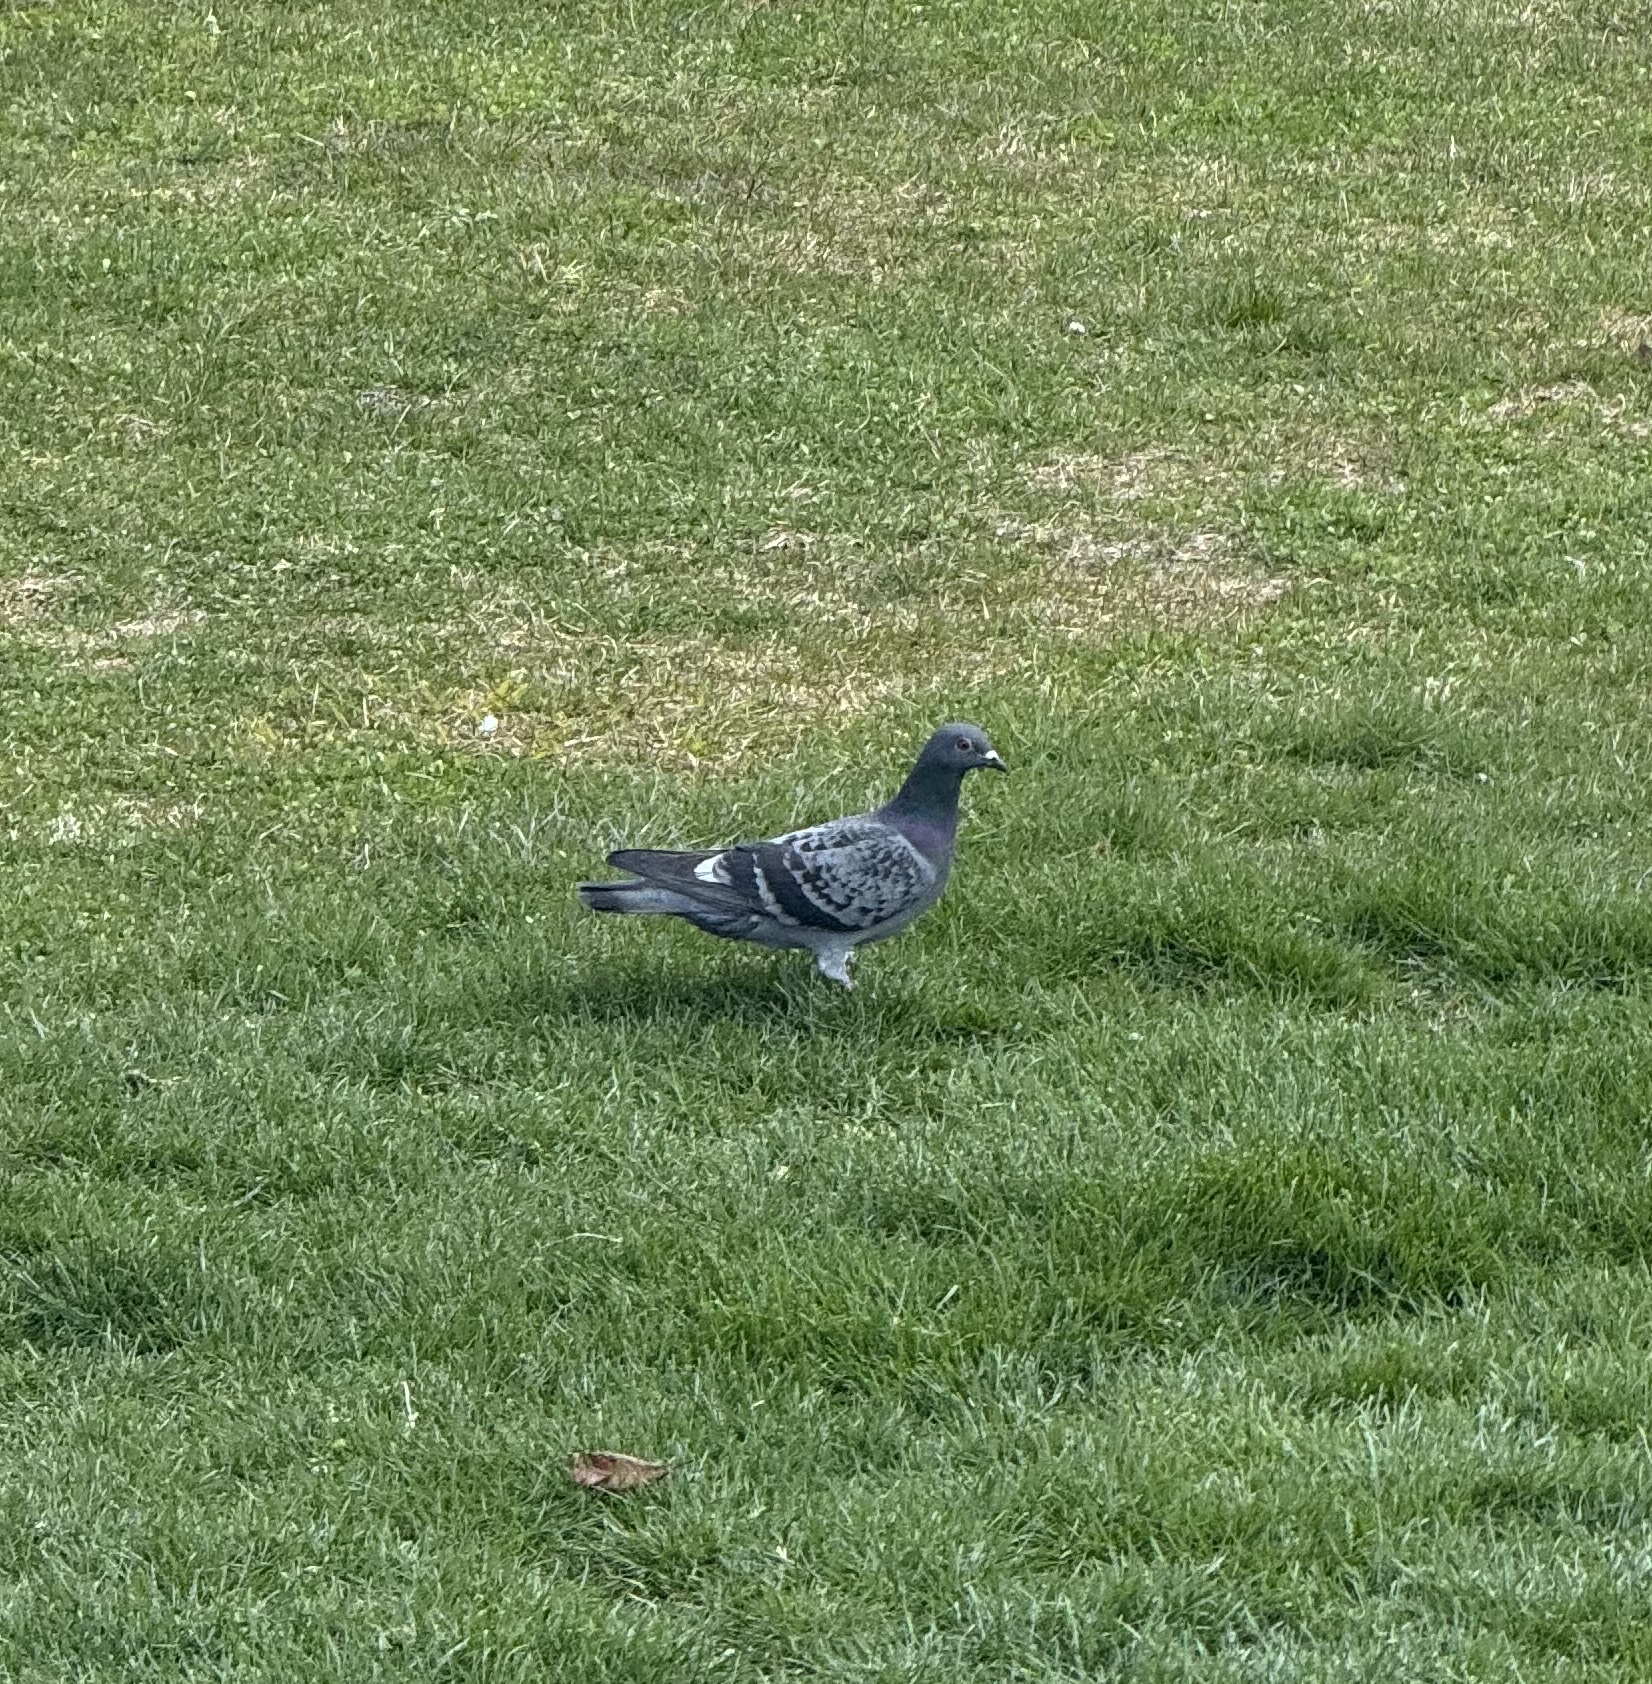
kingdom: Animalia
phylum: Chordata
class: Aves
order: Columbiformes
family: Columbidae
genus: Columba
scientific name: Columba livia
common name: Rock pigeon
